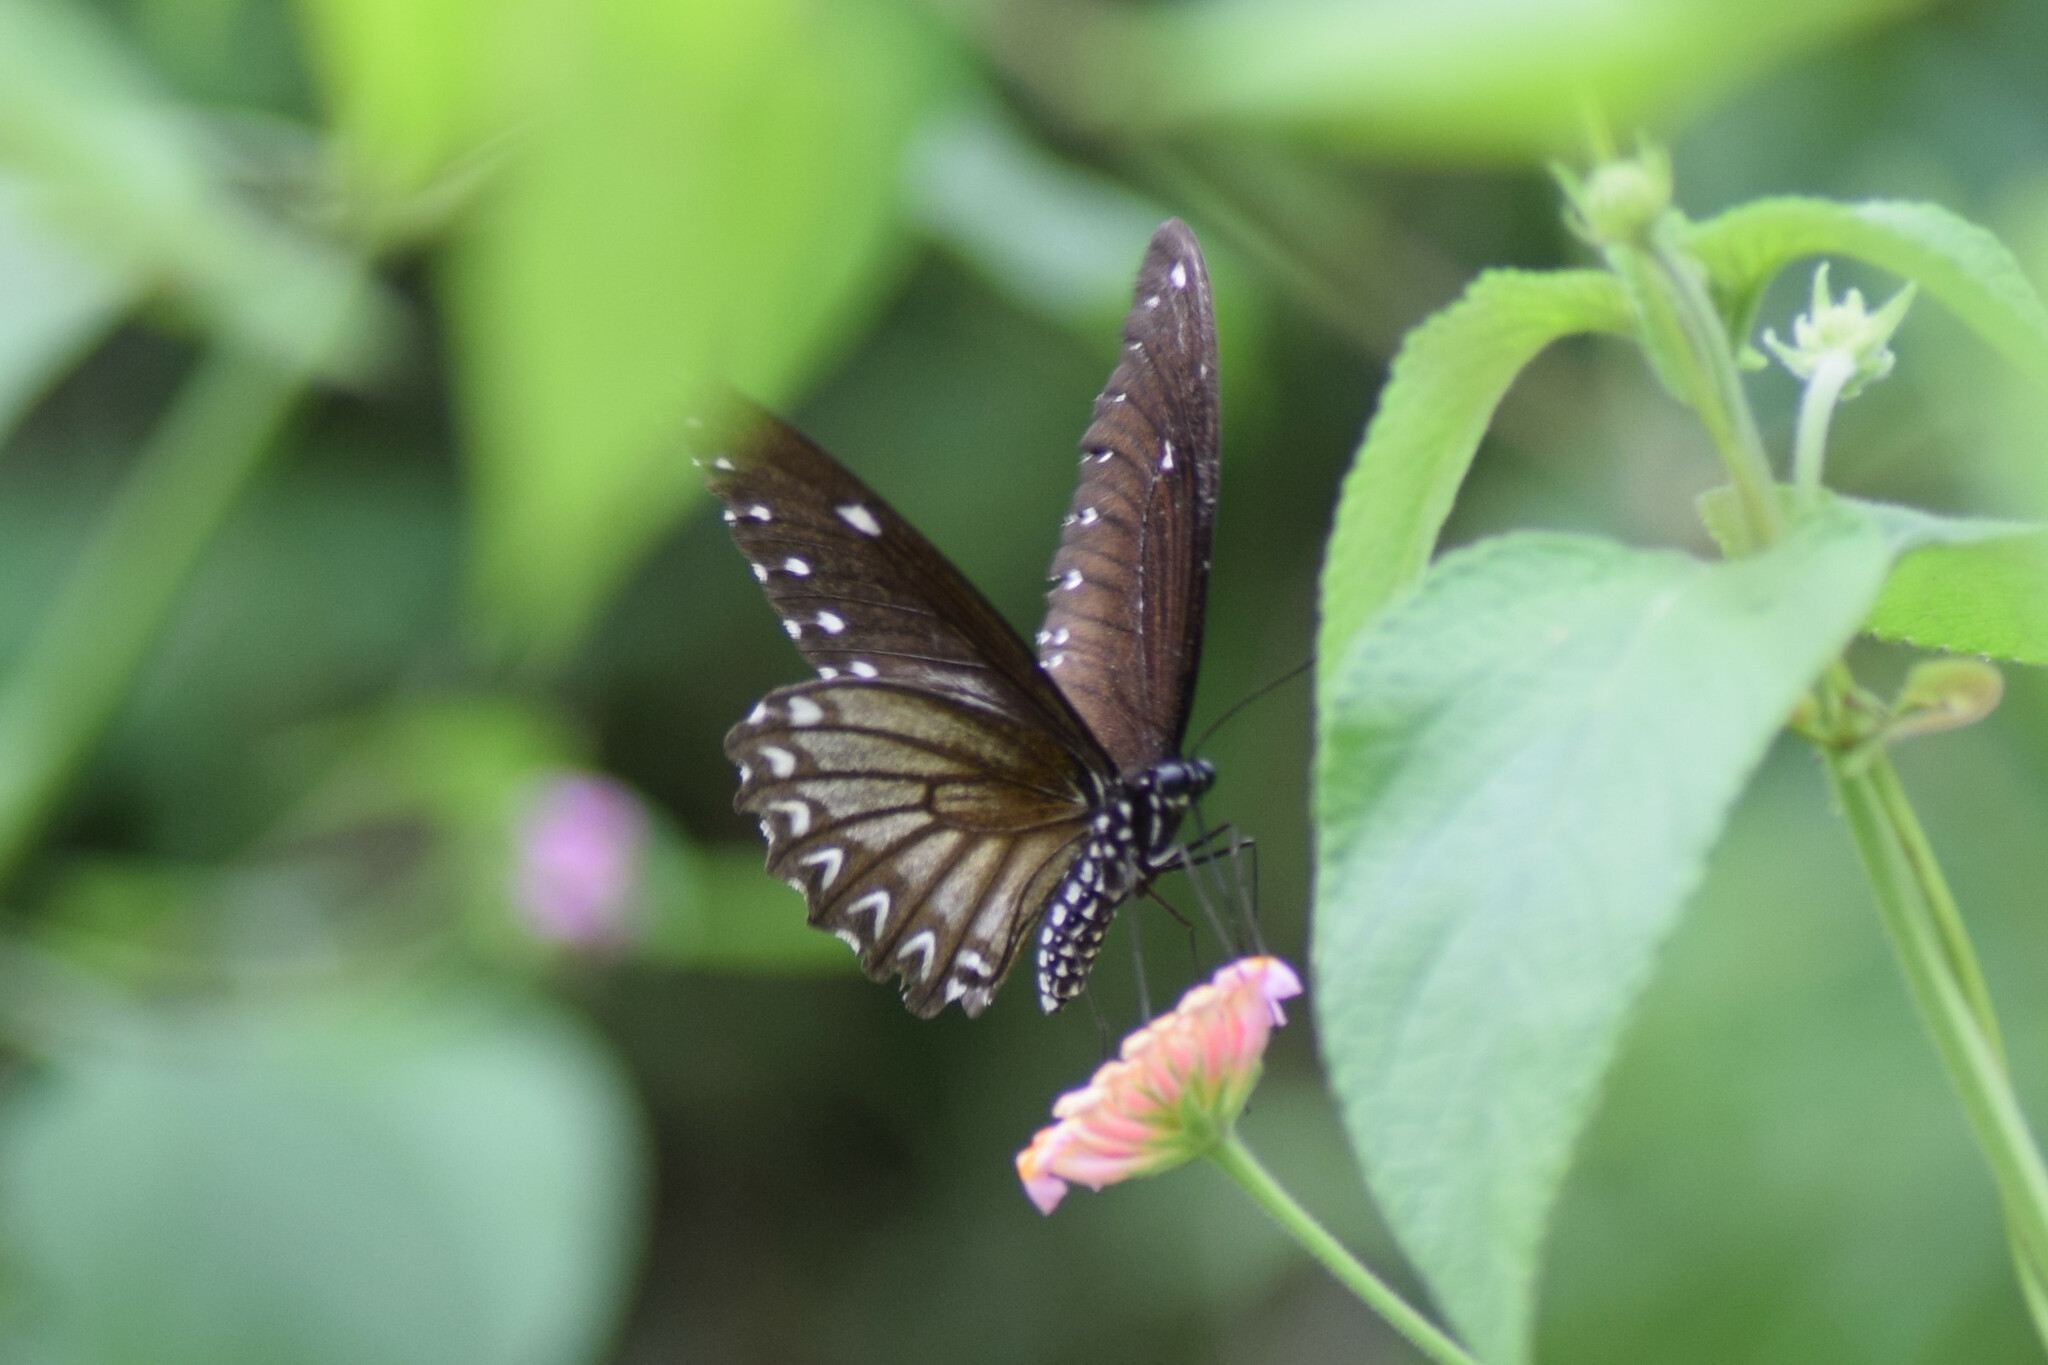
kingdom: Animalia
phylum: Arthropoda
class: Insecta
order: Lepidoptera
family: Papilionidae
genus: Papilio
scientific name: Papilio castor
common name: Common raven
